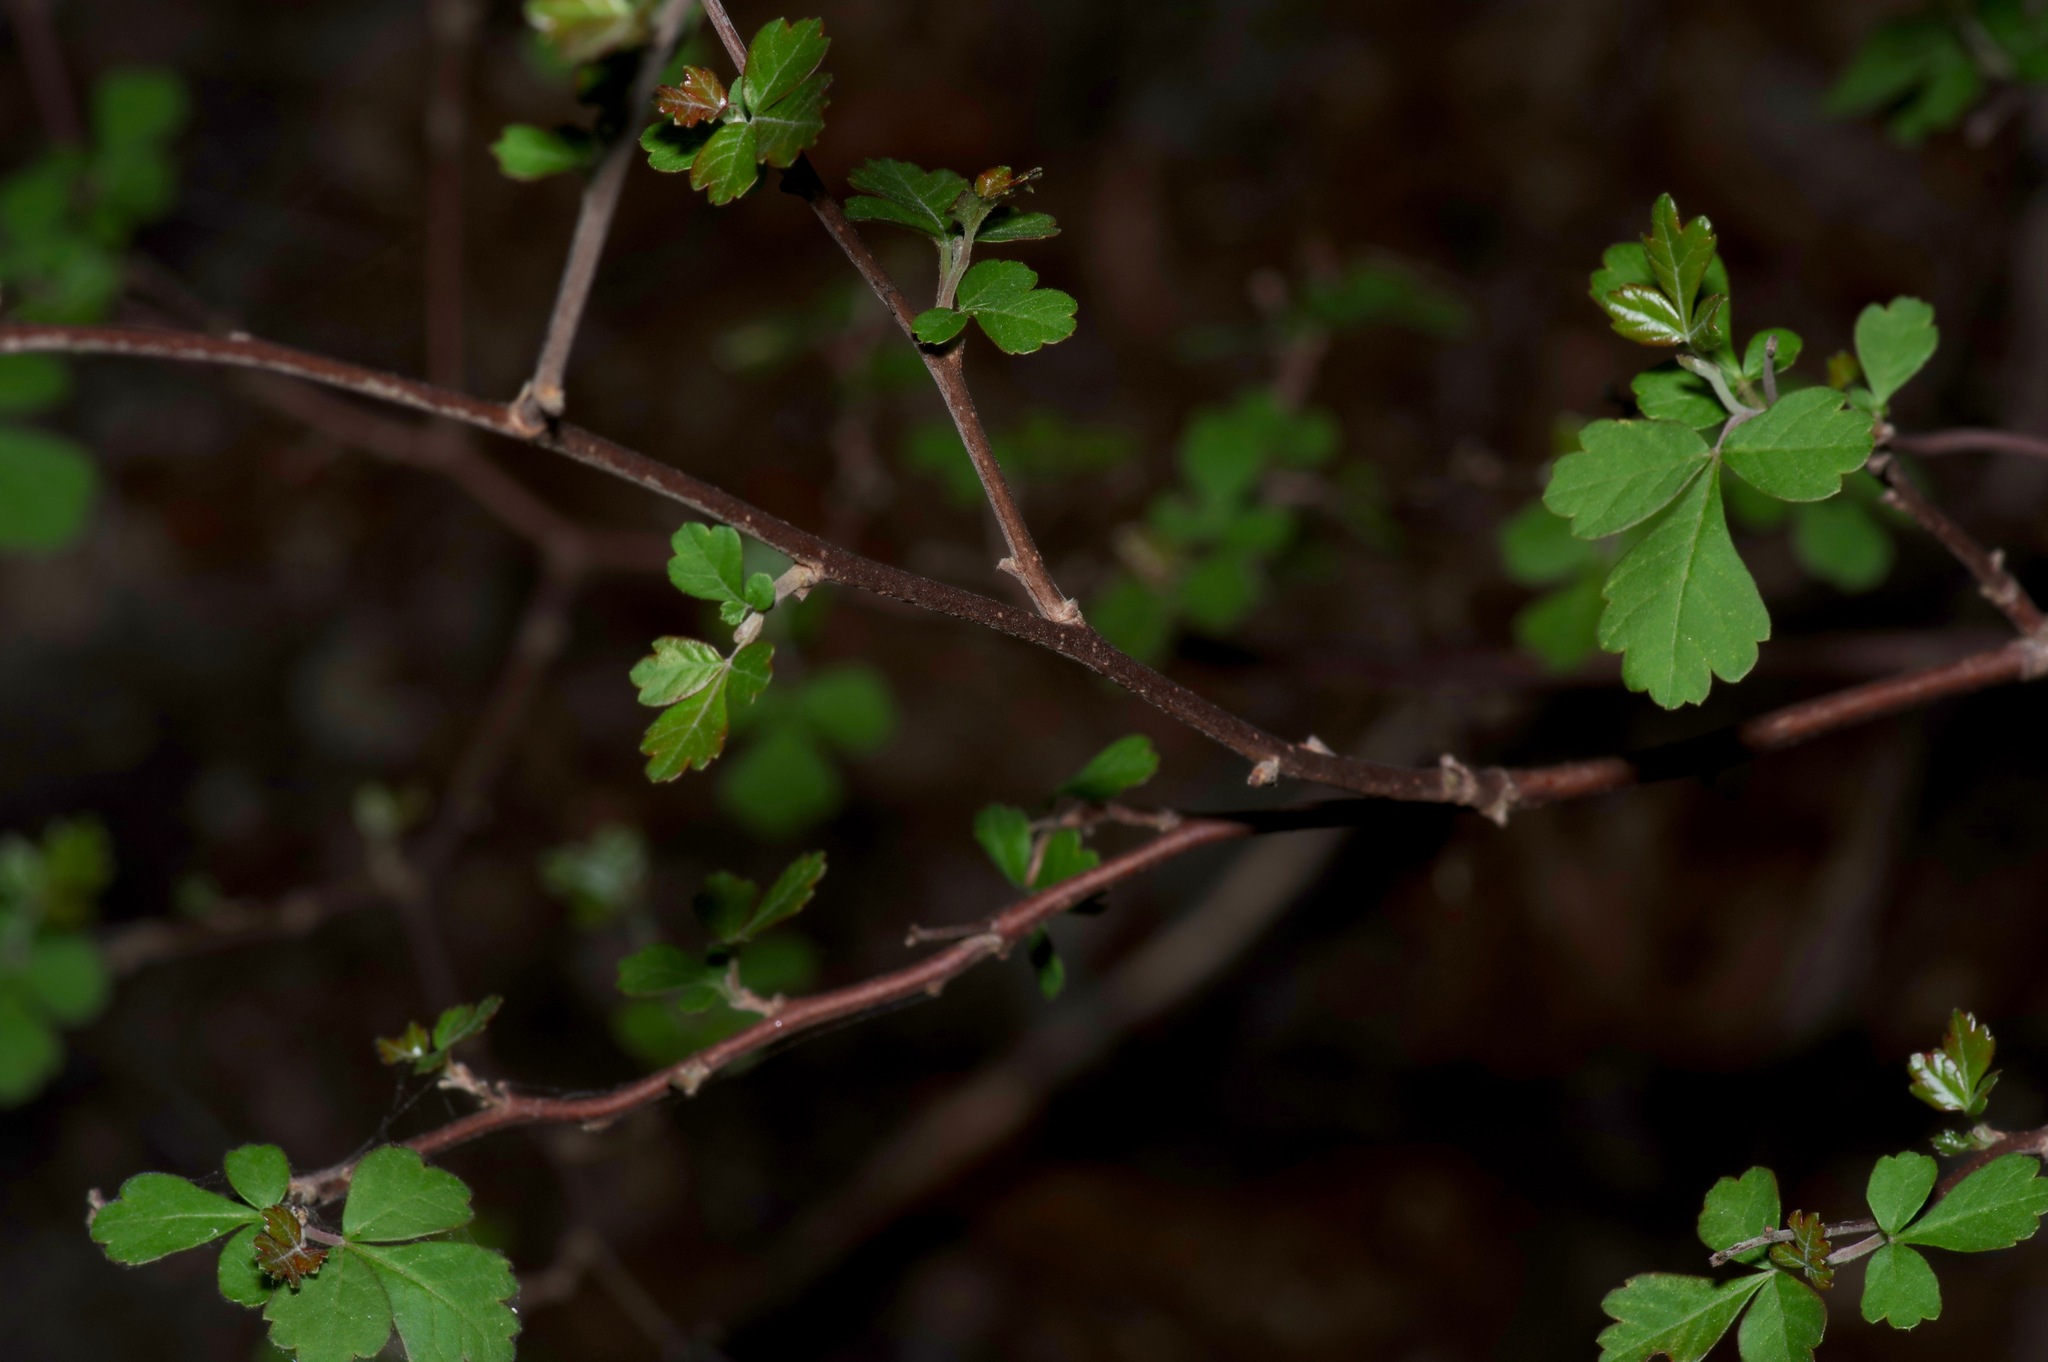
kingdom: Plantae
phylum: Tracheophyta
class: Magnoliopsida
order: Sapindales
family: Anacardiaceae
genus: Rhus
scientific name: Rhus aromatica
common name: Aromatic sumac
